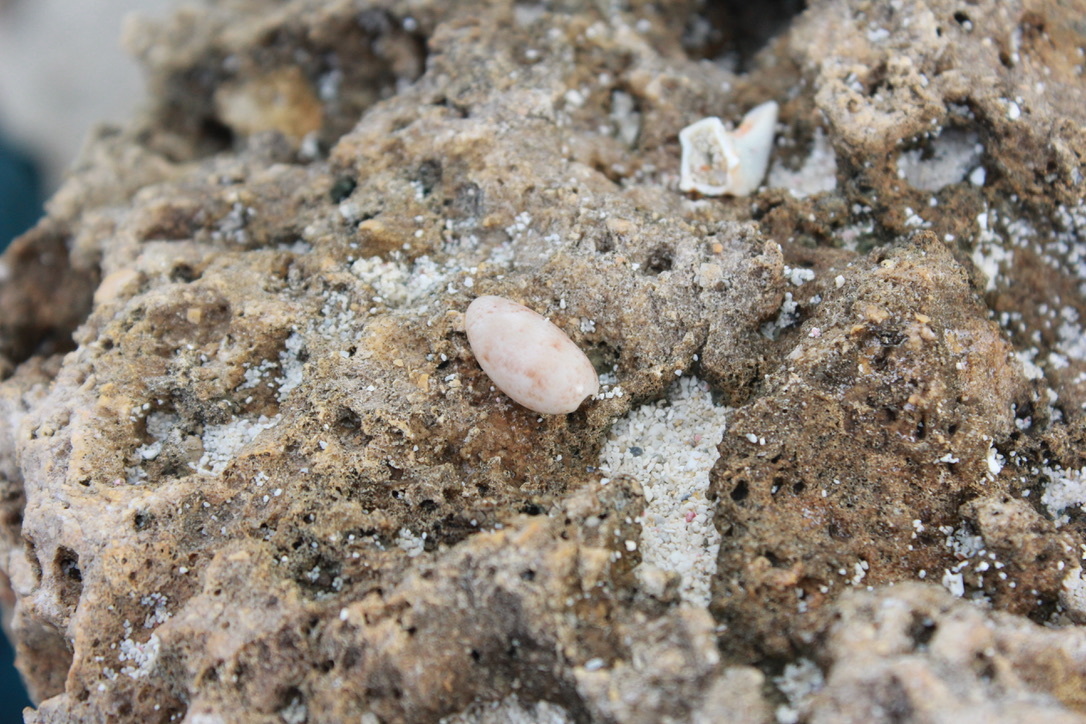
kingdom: Animalia
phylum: Mollusca
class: Gastropoda
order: Cephalaspidea
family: Bullidae
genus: Bulla
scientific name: Bulla occidentalis
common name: Common west-indian bubble
